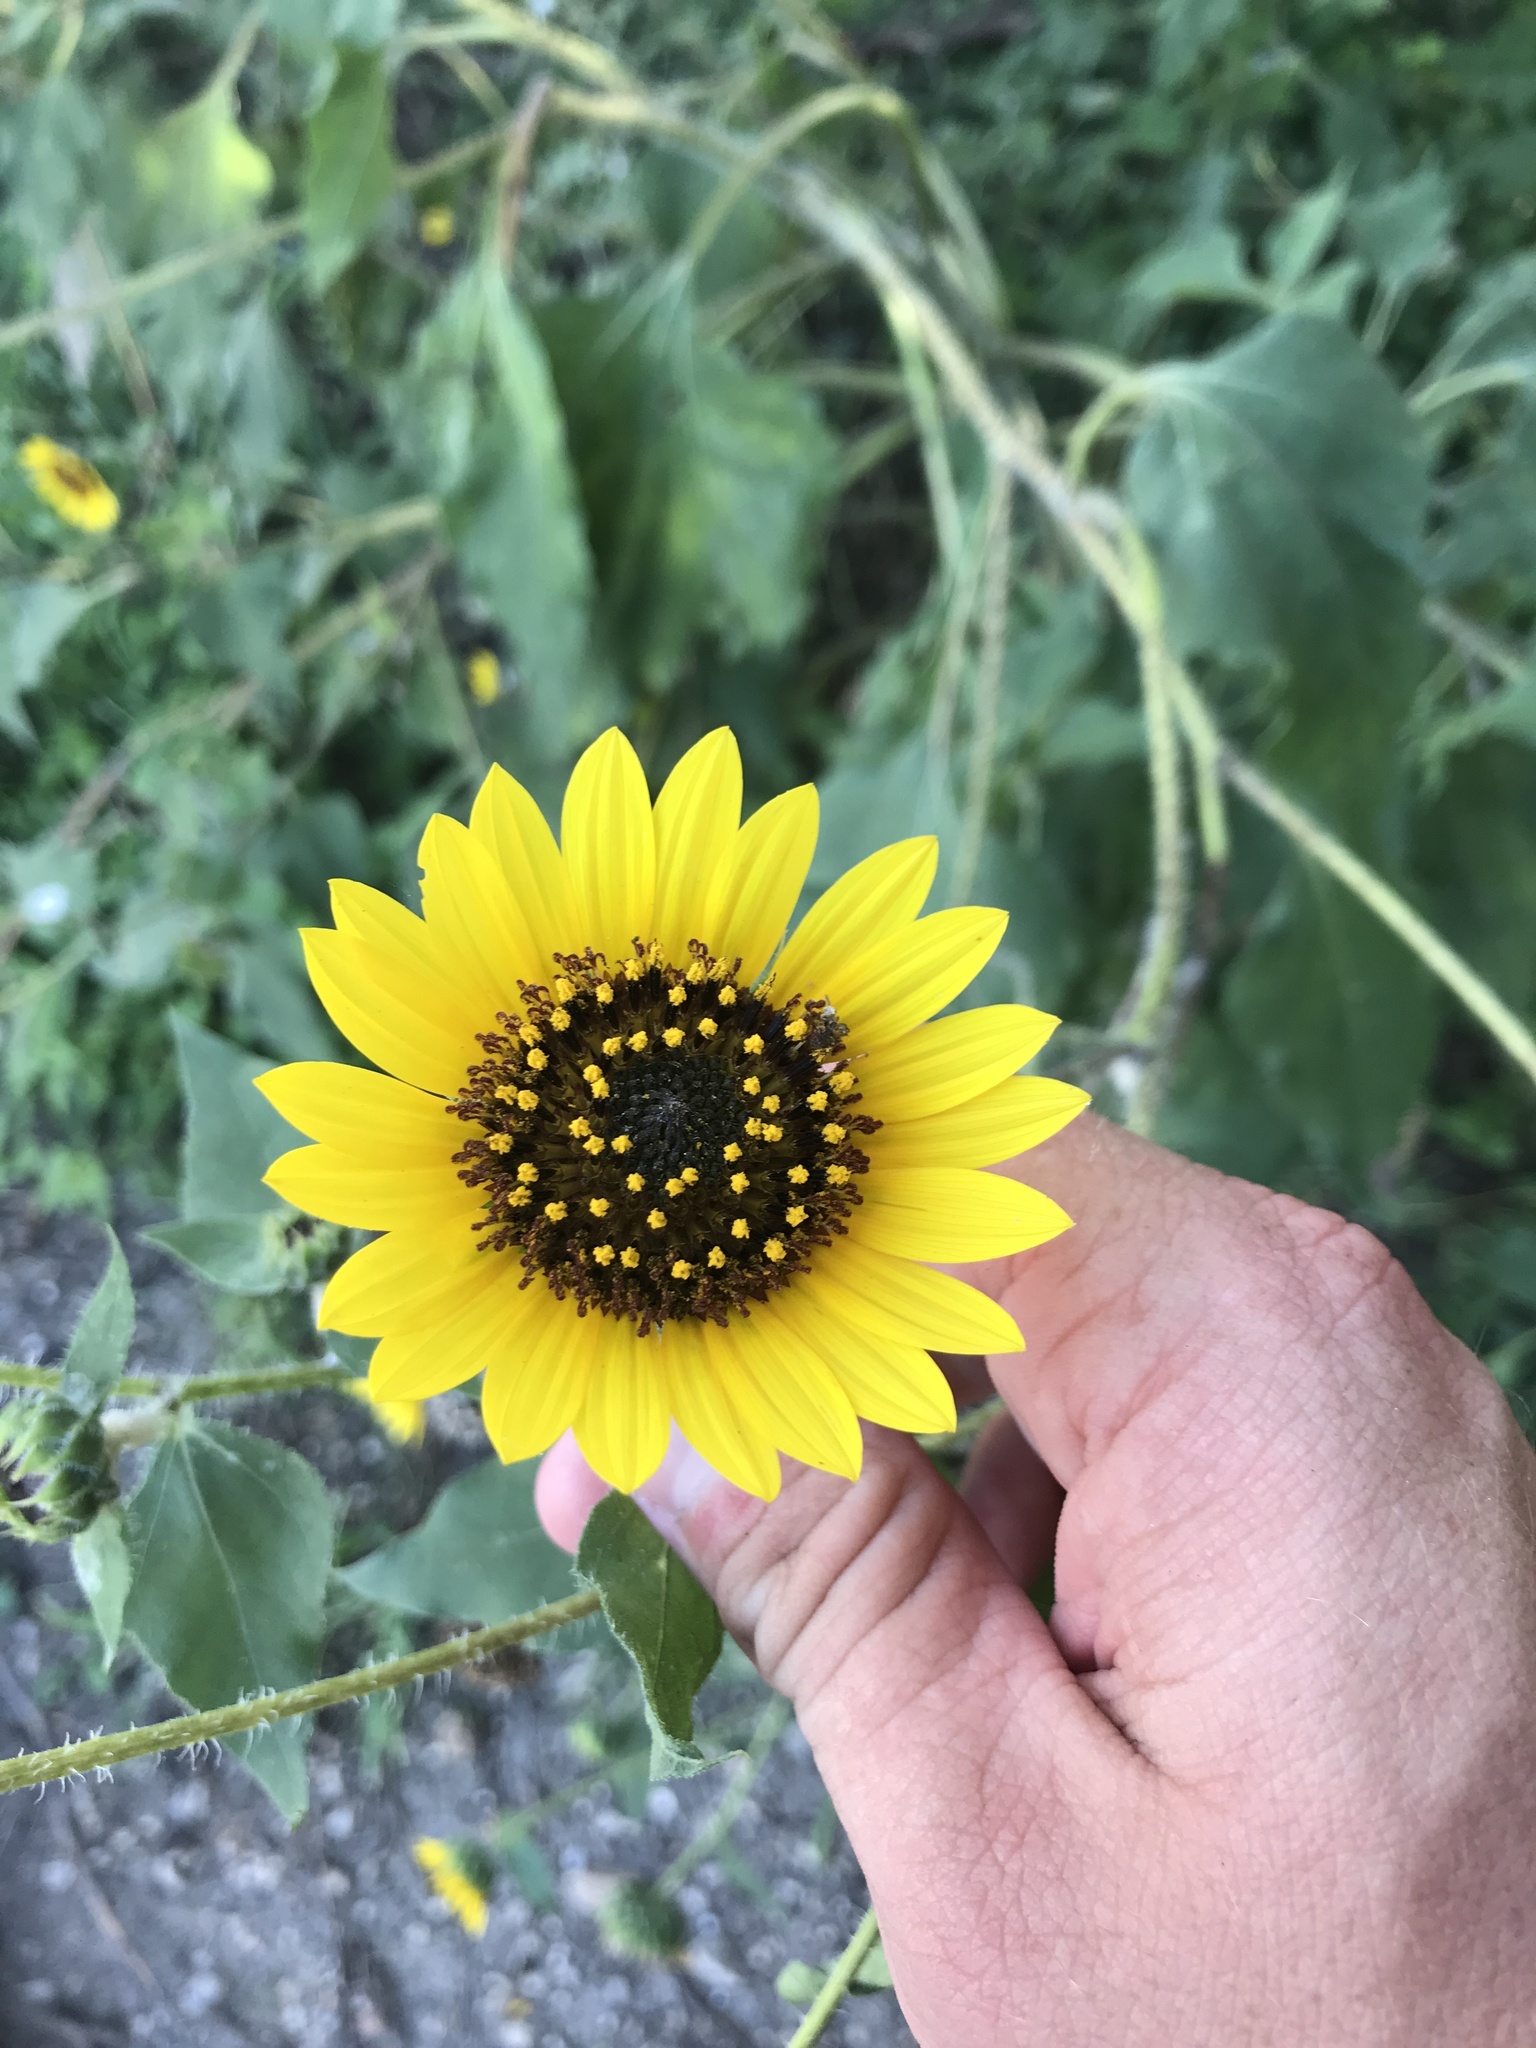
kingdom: Plantae
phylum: Tracheophyta
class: Magnoliopsida
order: Asterales
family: Asteraceae
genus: Helianthus
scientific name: Helianthus annuus
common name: Sunflower
